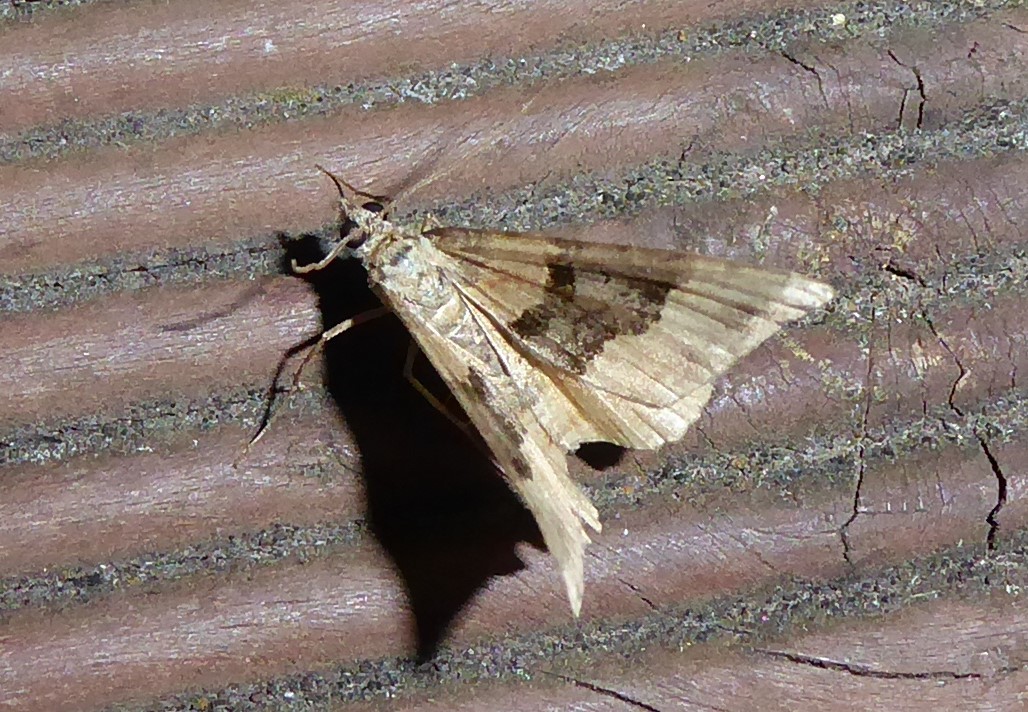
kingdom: Animalia
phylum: Arthropoda
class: Insecta
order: Lepidoptera
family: Geometridae
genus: Hydriomena
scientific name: Hydriomena deltoidata
